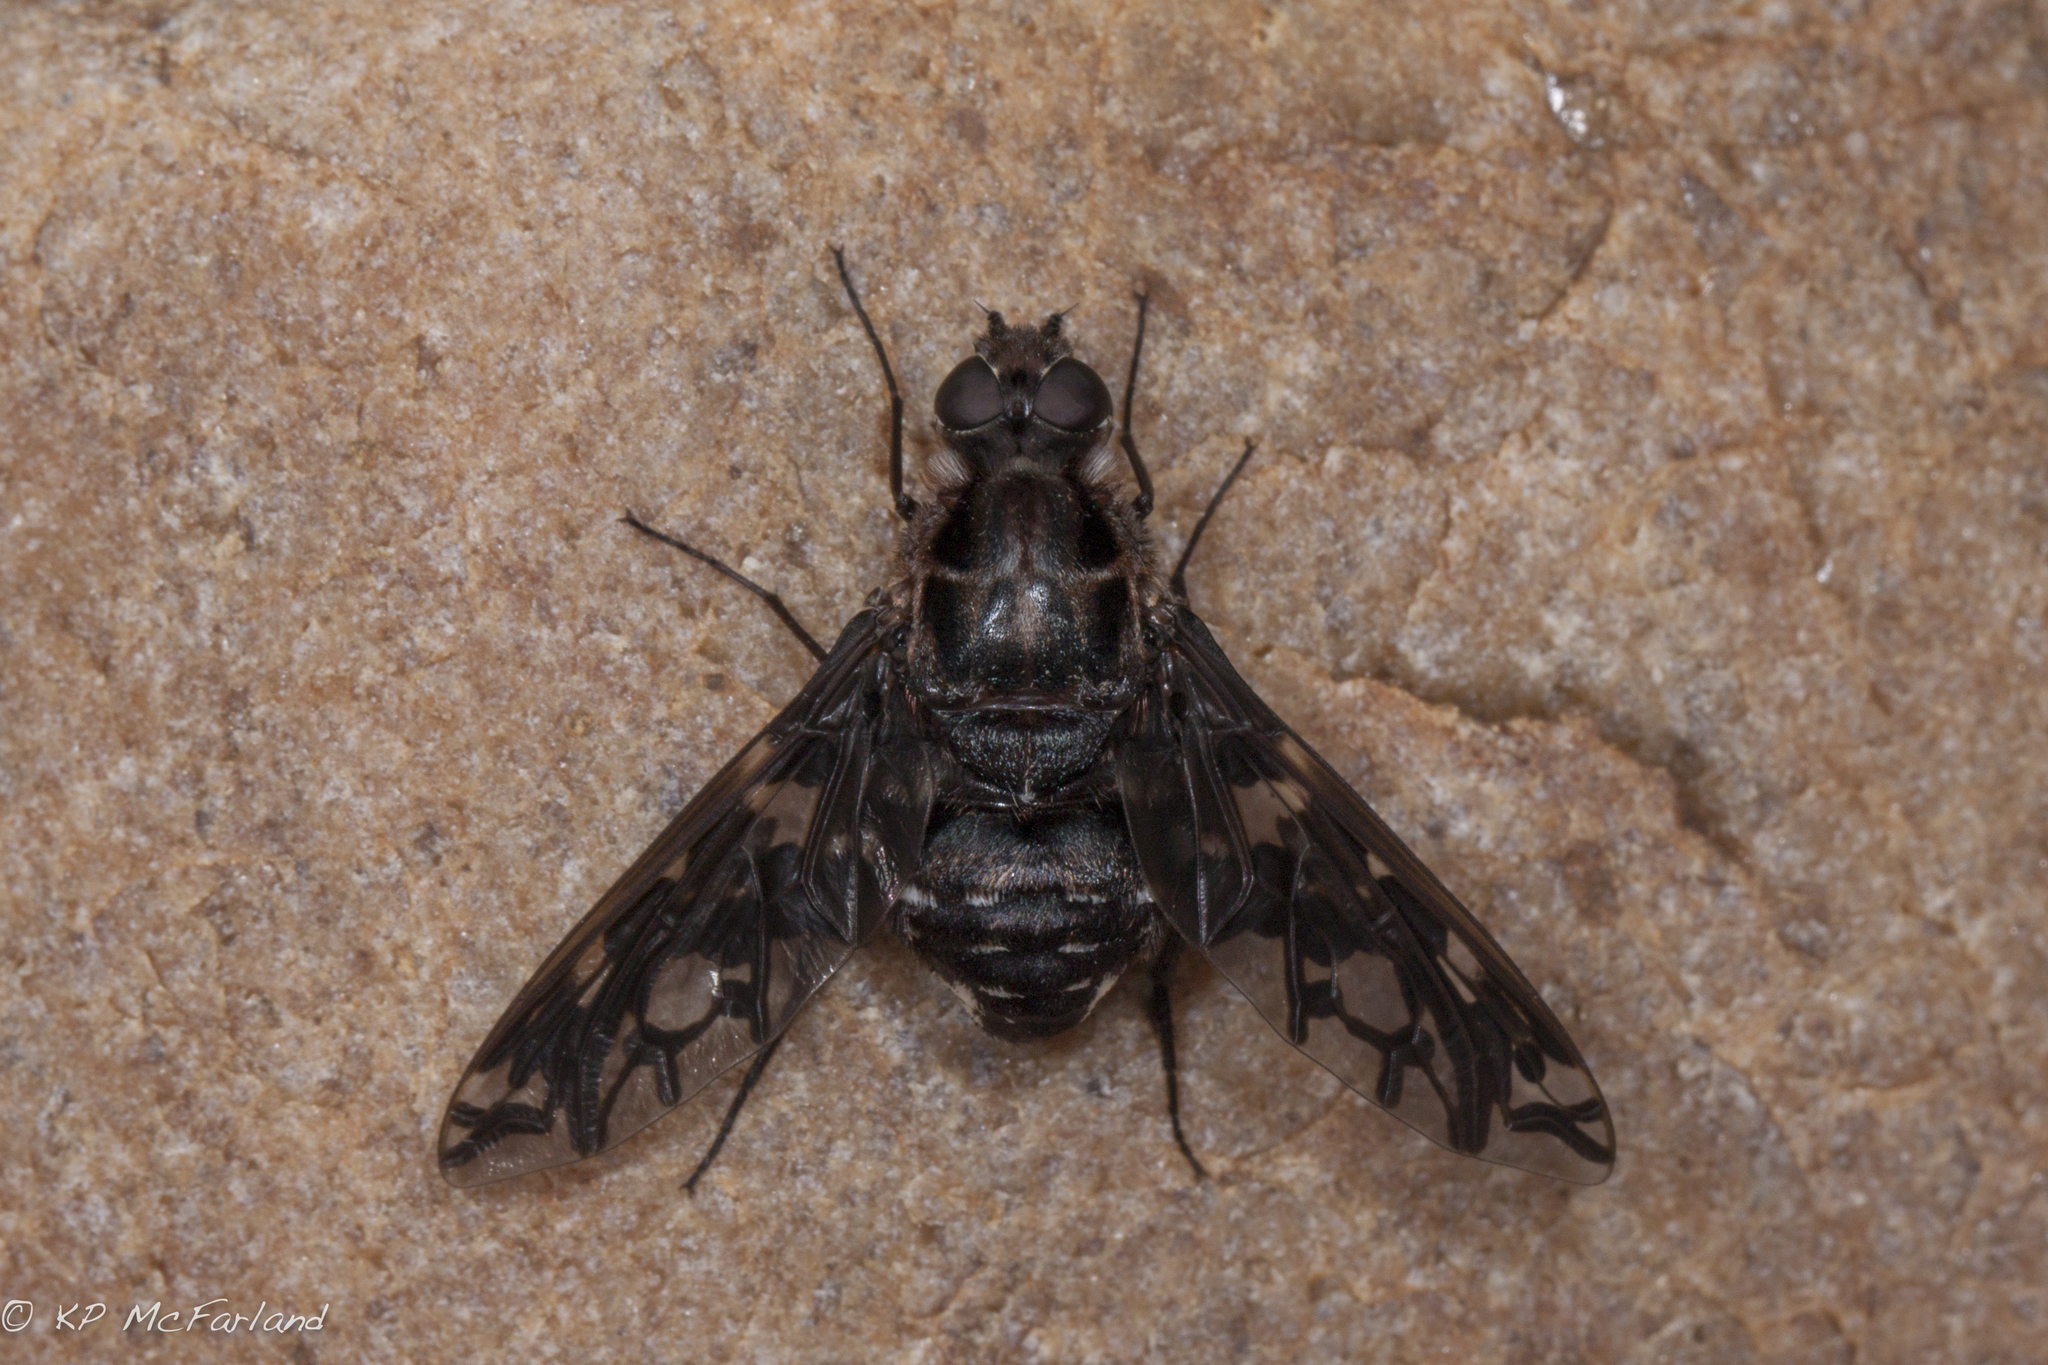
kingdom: Animalia
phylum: Arthropoda
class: Insecta
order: Diptera
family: Bombyliidae
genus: Xenox
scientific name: Xenox tigrinus
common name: Tiger bee fly
